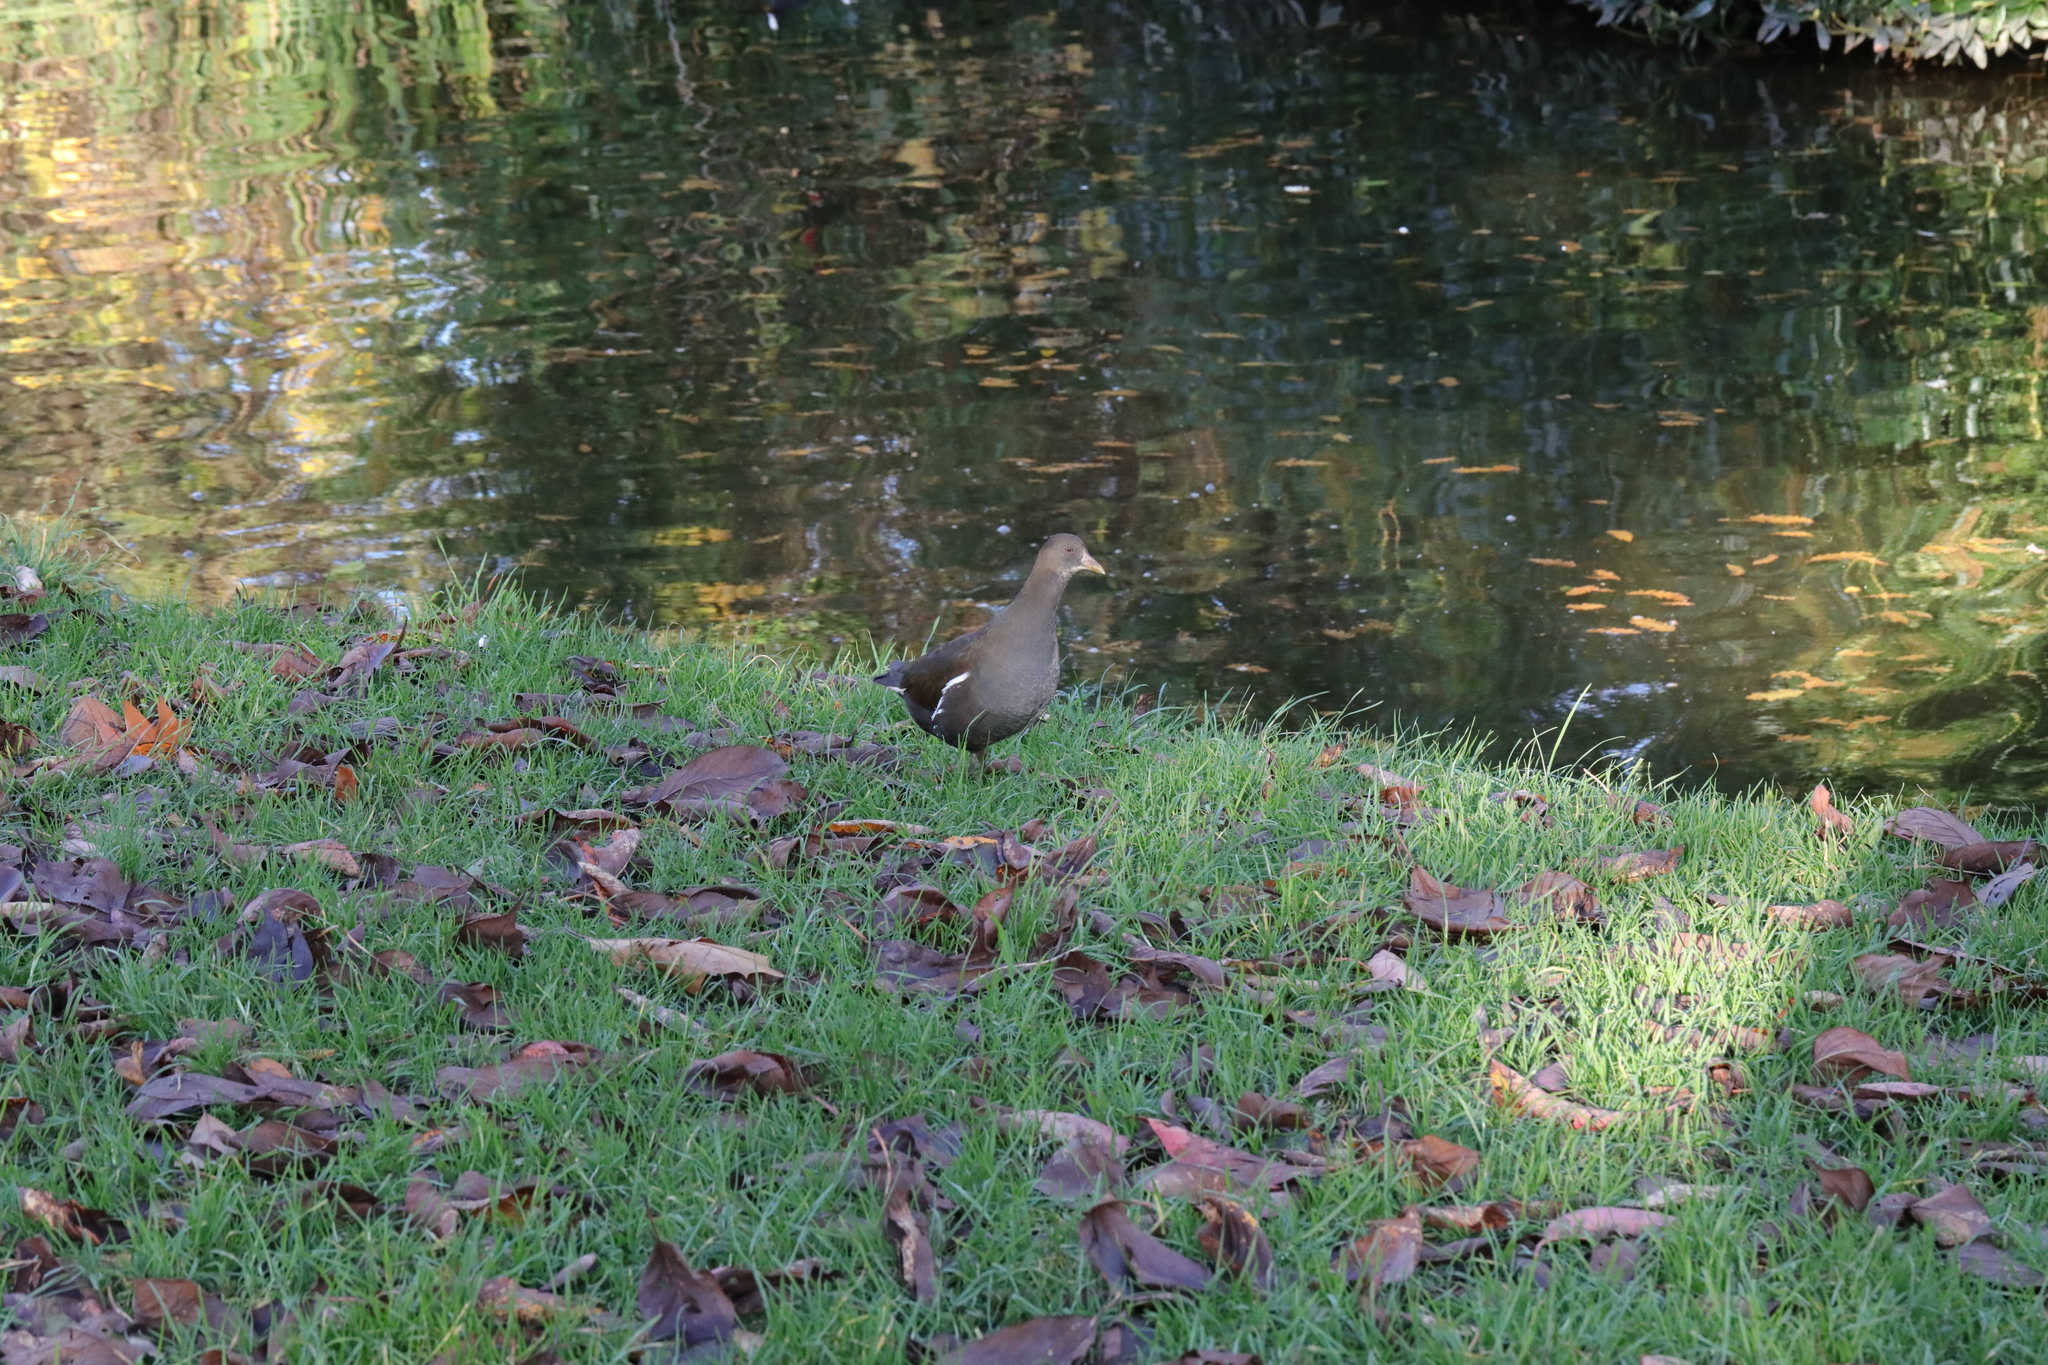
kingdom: Animalia
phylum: Chordata
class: Aves
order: Gruiformes
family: Rallidae
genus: Gallinula
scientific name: Gallinula chloropus
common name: Common moorhen
